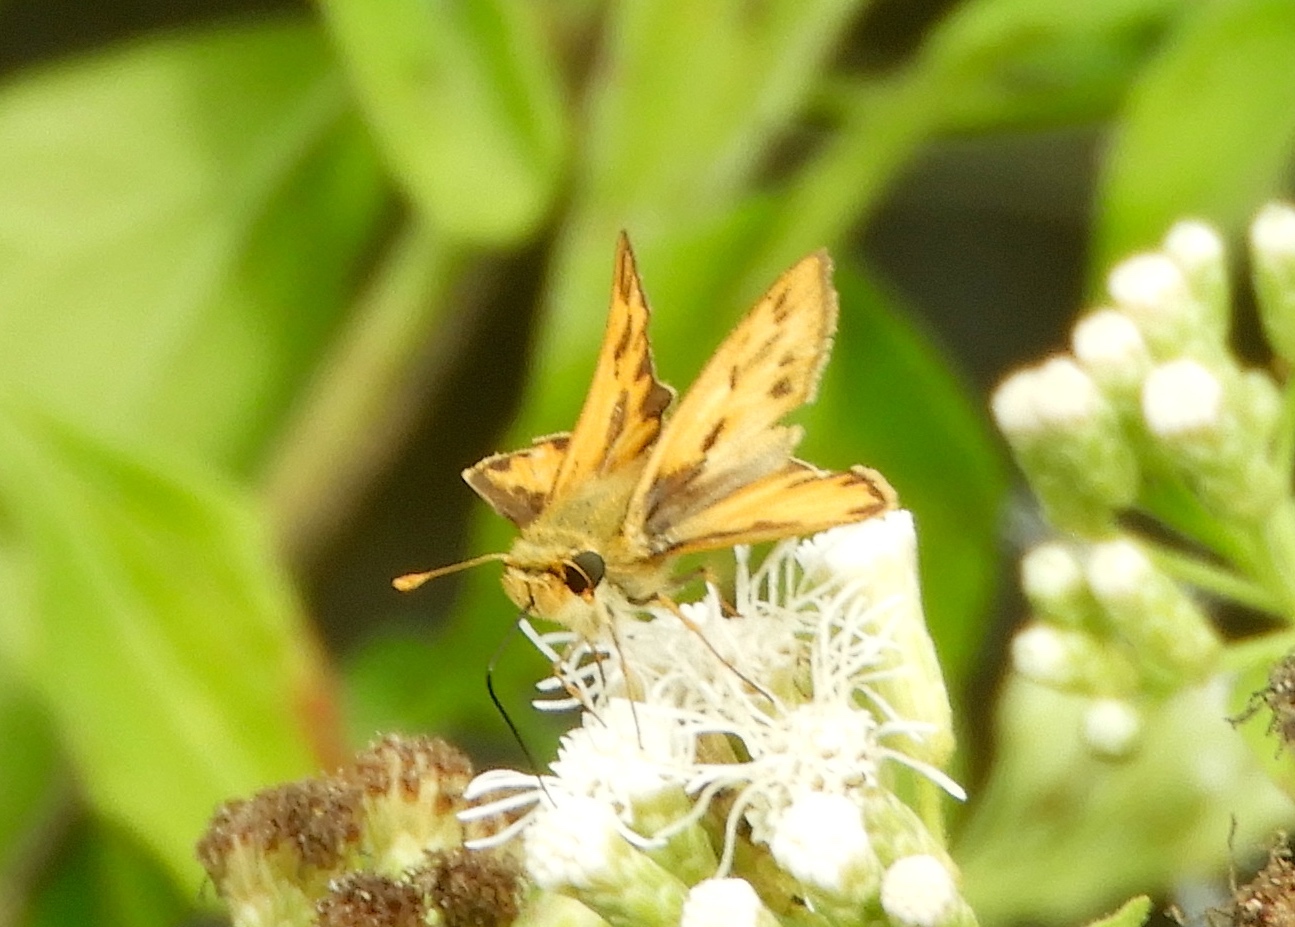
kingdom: Animalia
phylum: Arthropoda
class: Insecta
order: Lepidoptera
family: Hesperiidae
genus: Hylephila
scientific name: Hylephila phyleus
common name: Fiery skipper
